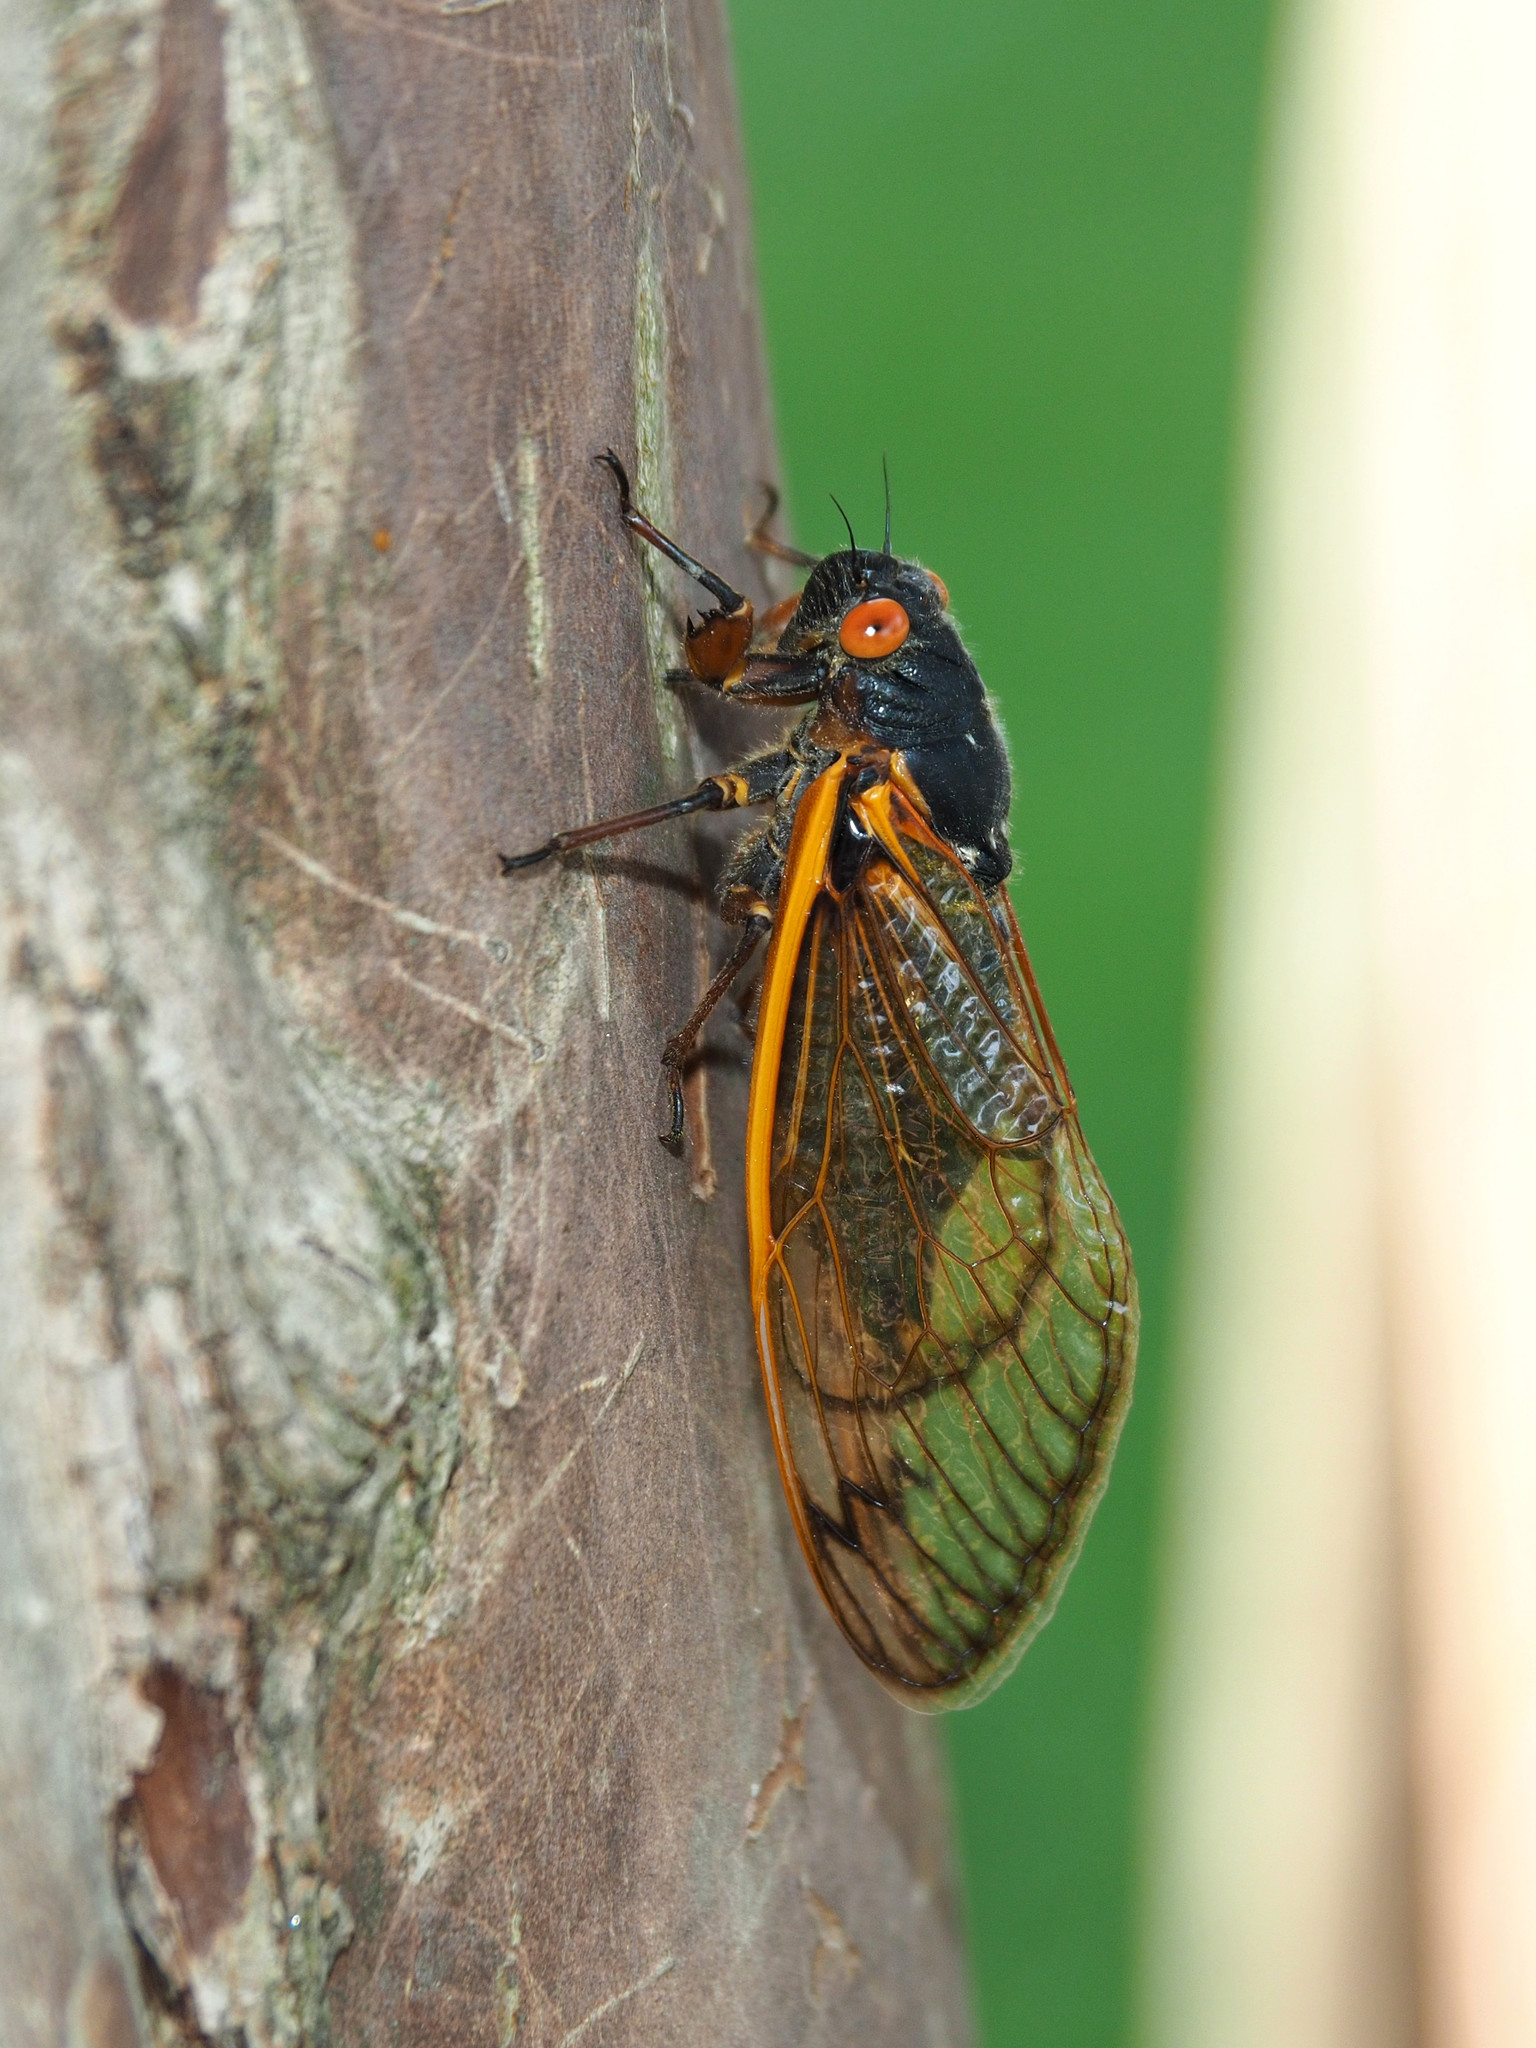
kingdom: Animalia
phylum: Arthropoda
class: Insecta
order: Hemiptera
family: Cicadidae
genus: Magicicada
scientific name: Magicicada septendecim
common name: Periodical cicada
